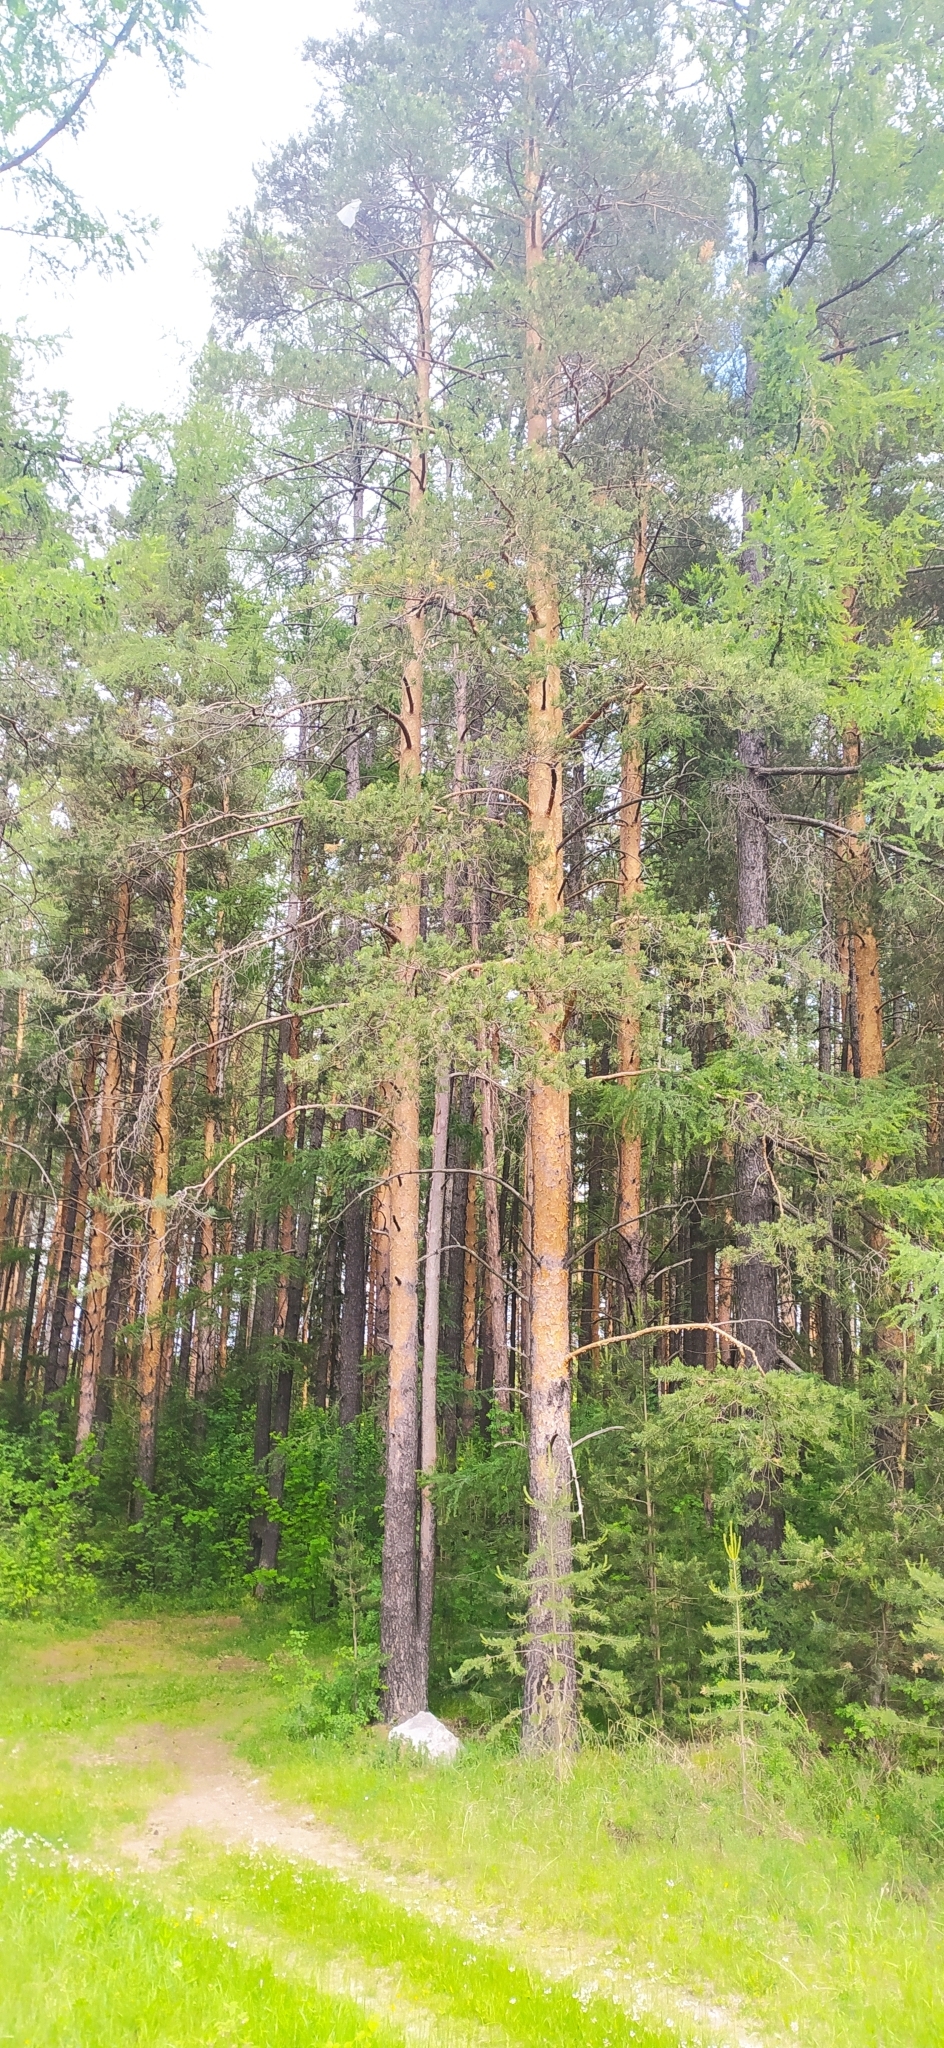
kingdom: Plantae
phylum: Tracheophyta
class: Pinopsida
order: Pinales
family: Pinaceae
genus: Pinus
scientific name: Pinus sylvestris
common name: Scots pine
